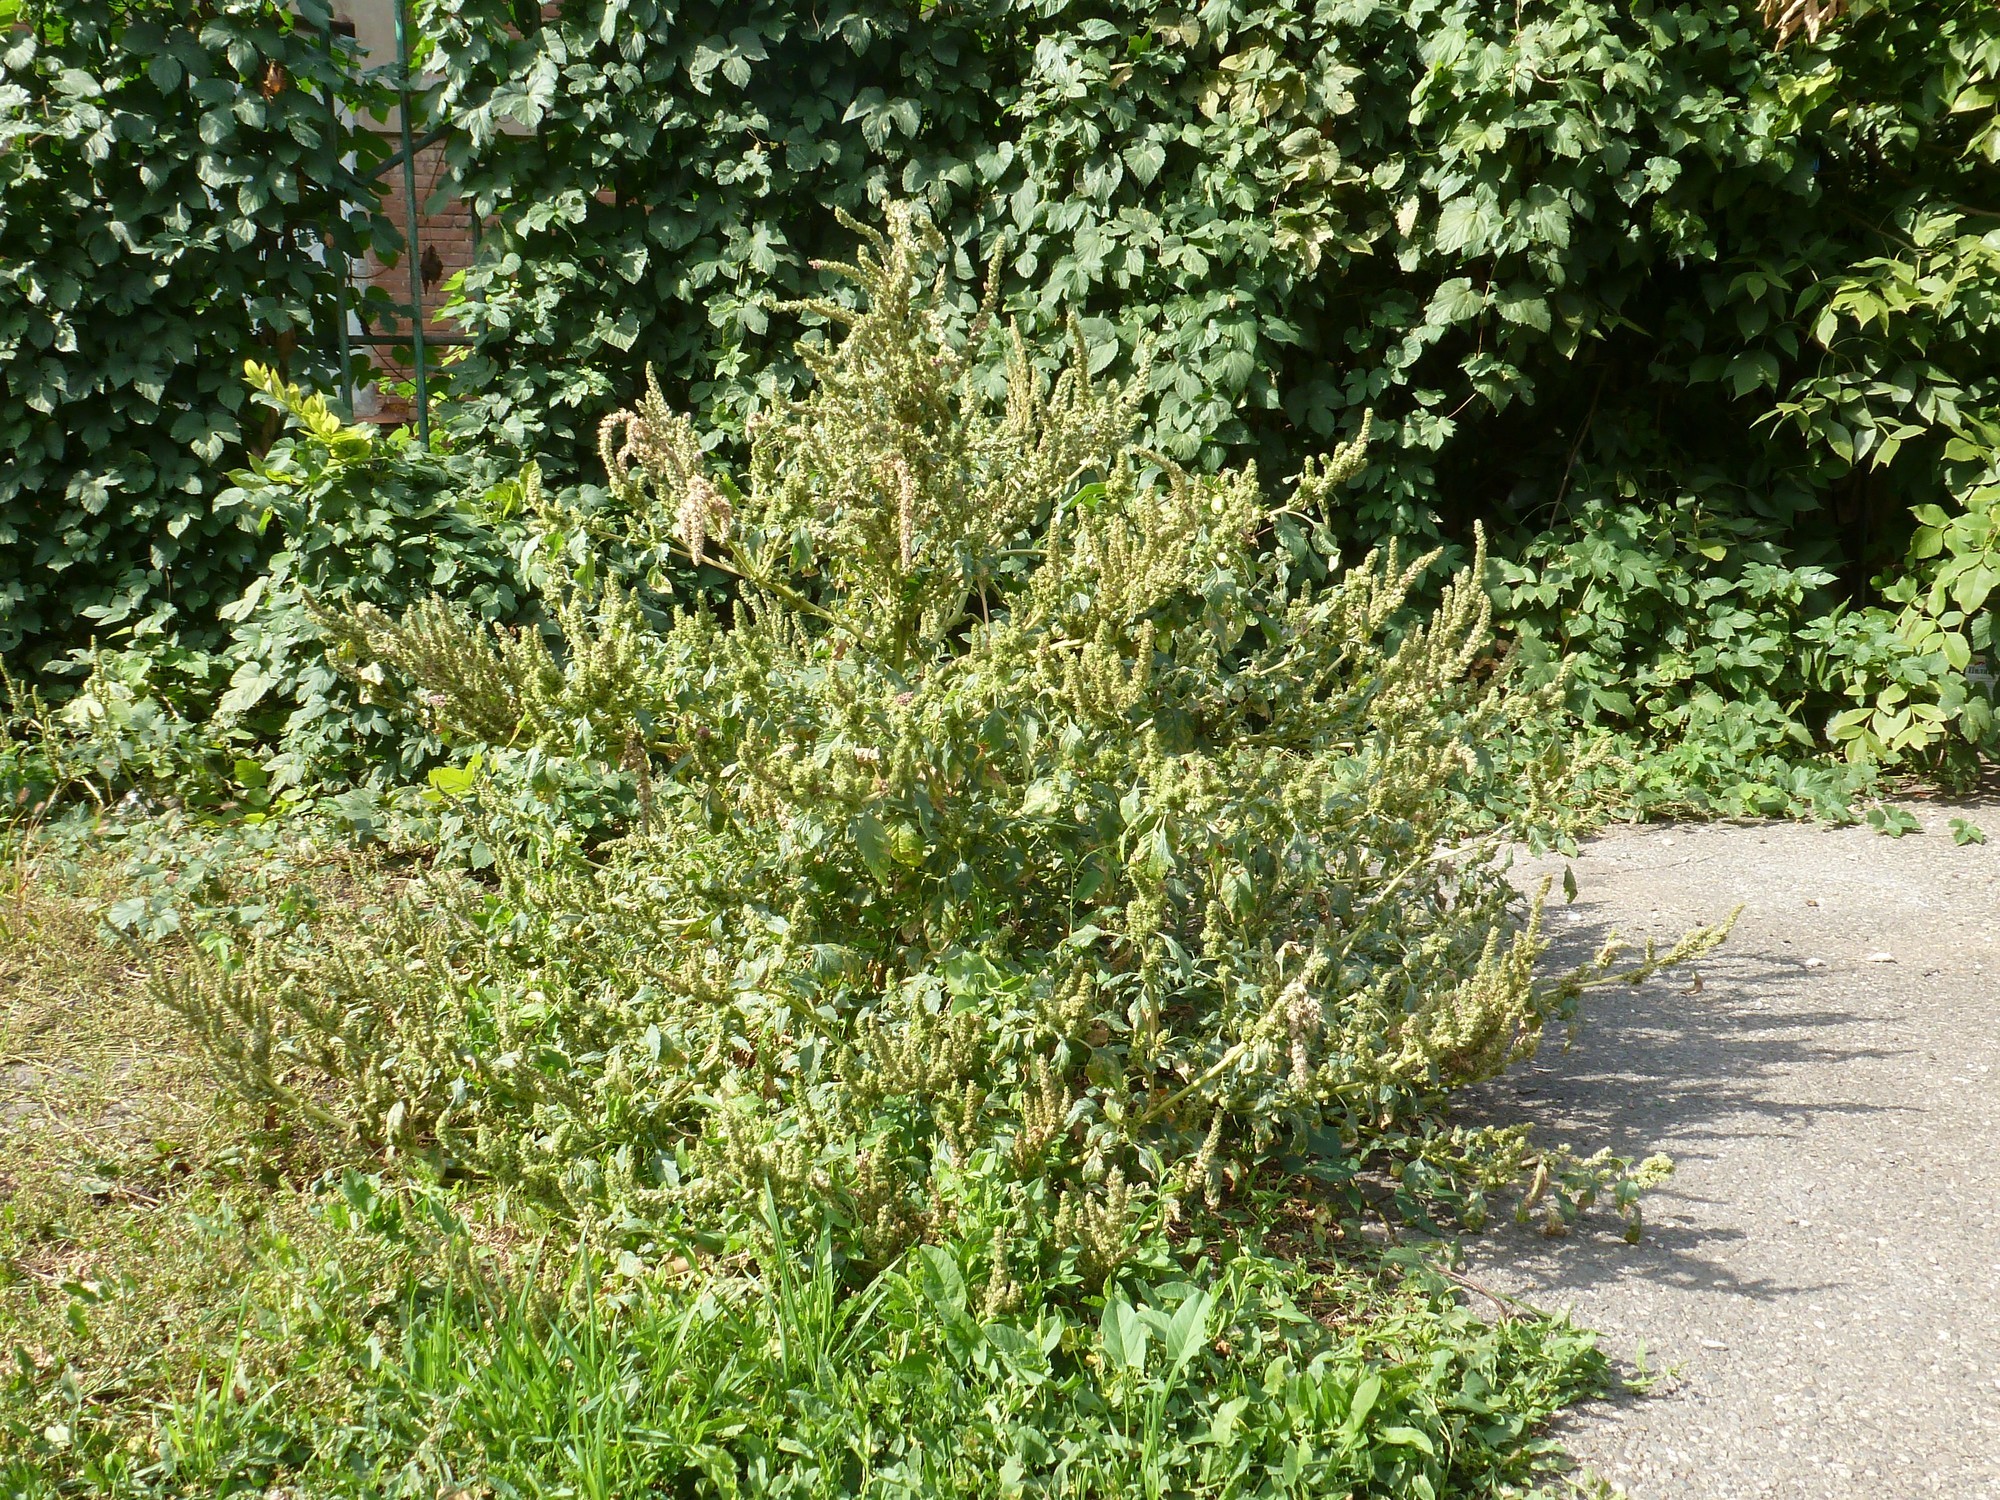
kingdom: Plantae
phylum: Tracheophyta
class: Magnoliopsida
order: Caryophyllales
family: Amaranthaceae
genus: Amaranthus
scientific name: Amaranthus retroflexus
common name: Redroot amaranth
